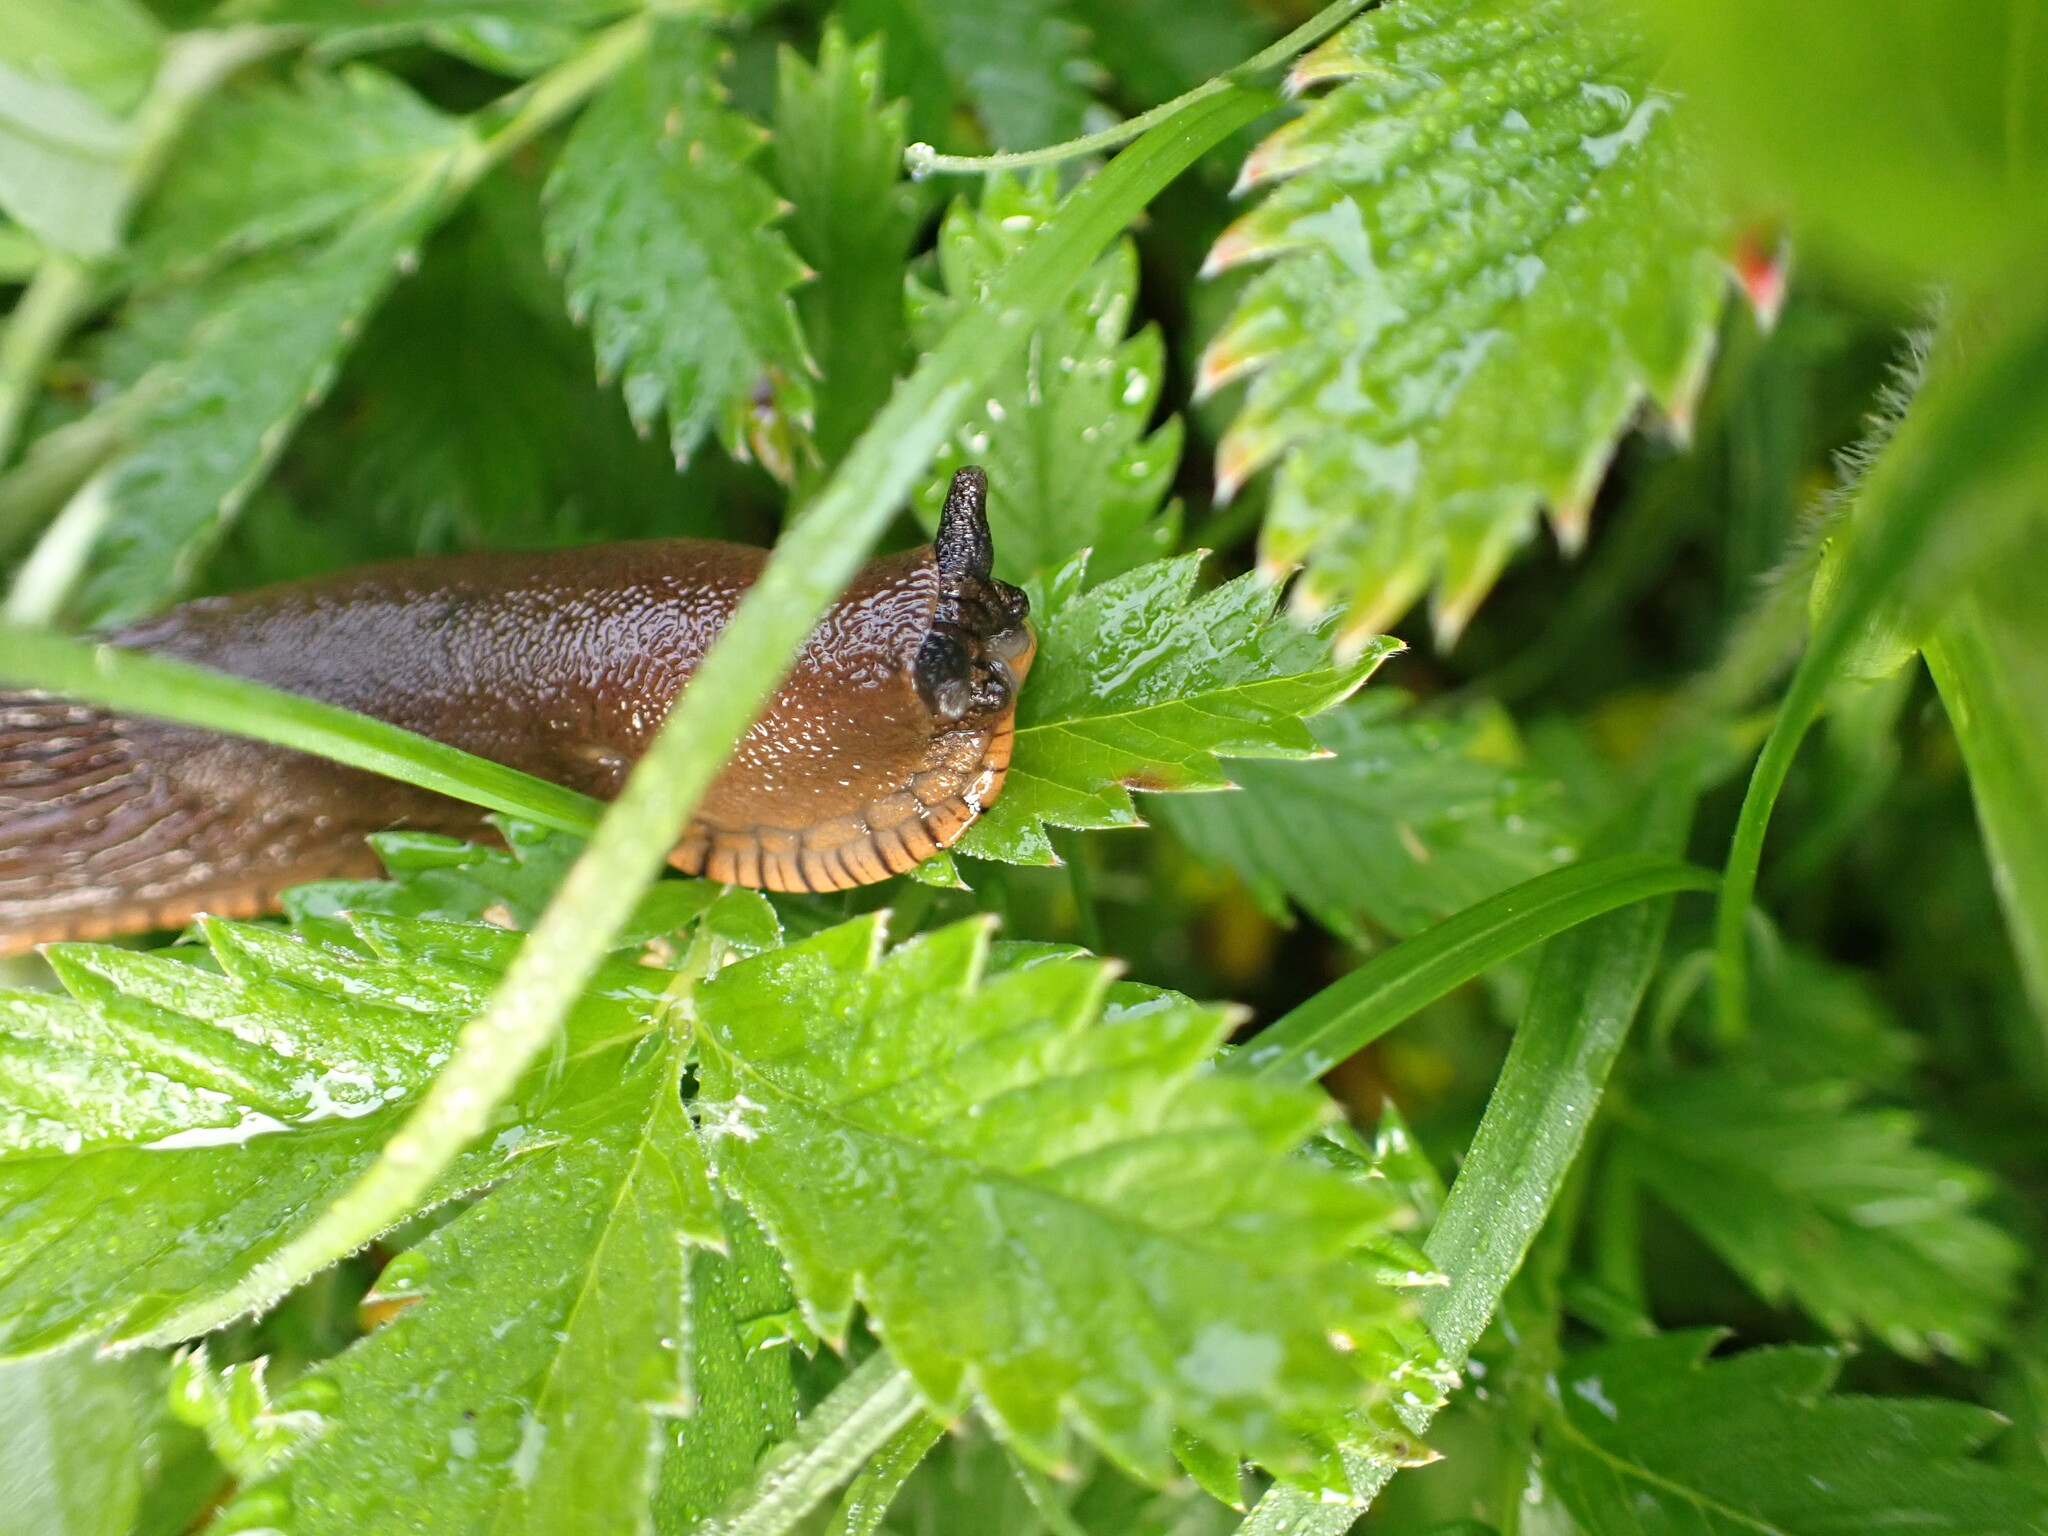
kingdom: Animalia
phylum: Mollusca
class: Gastropoda
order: Stylommatophora
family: Arionidae
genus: Arion
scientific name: Arion
